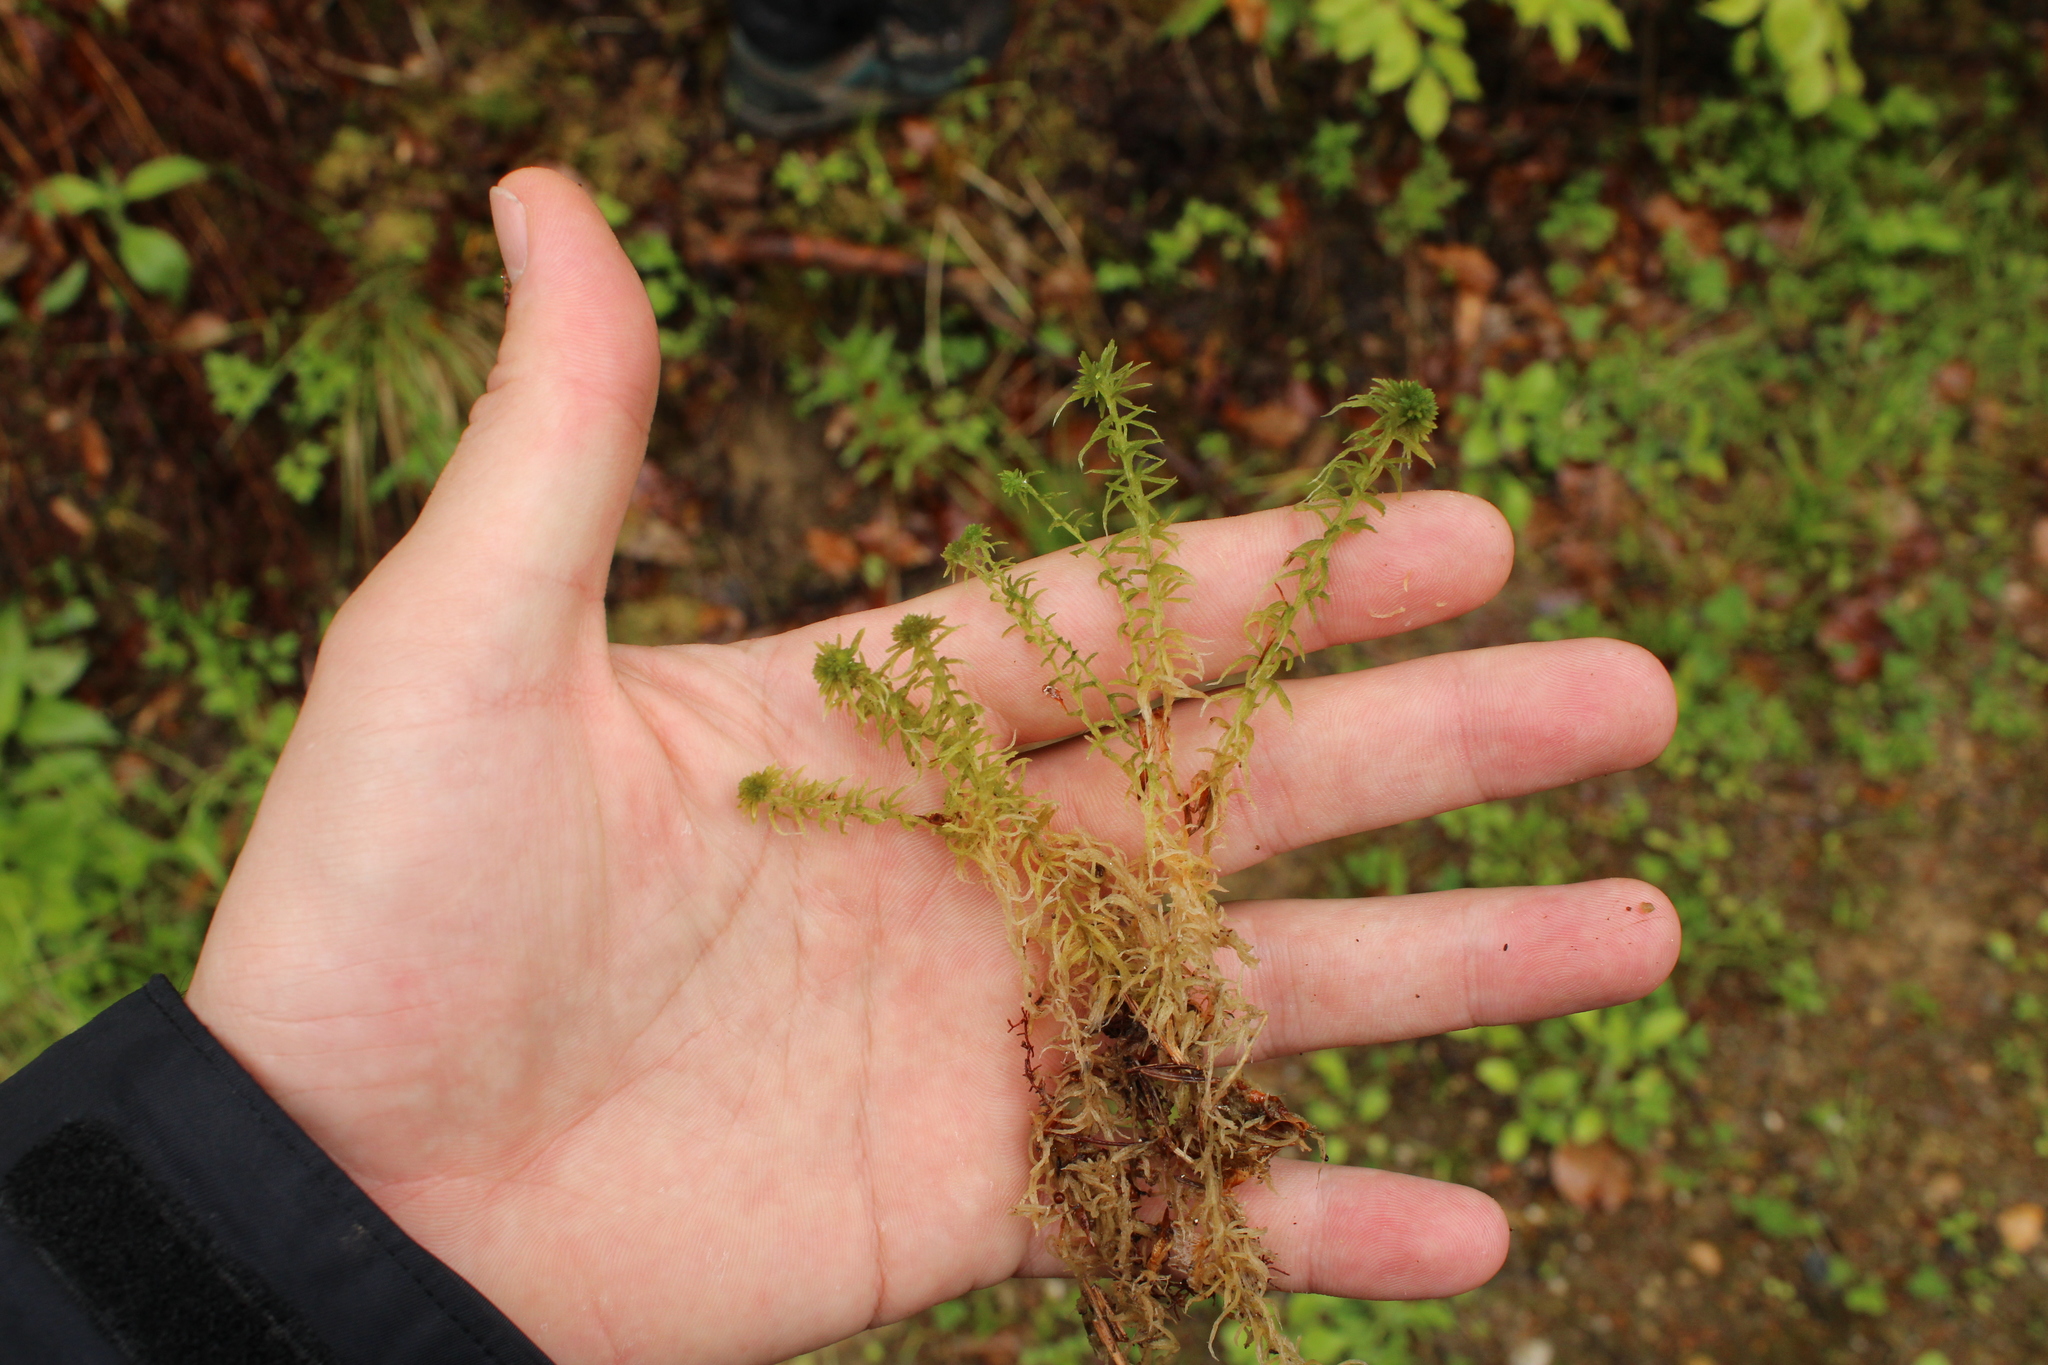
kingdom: Plantae
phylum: Bryophyta
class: Sphagnopsida
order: Sphagnales
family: Sphagnaceae
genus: Sphagnum
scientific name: Sphagnum quinquefarium
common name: Five-ranked peat moss
